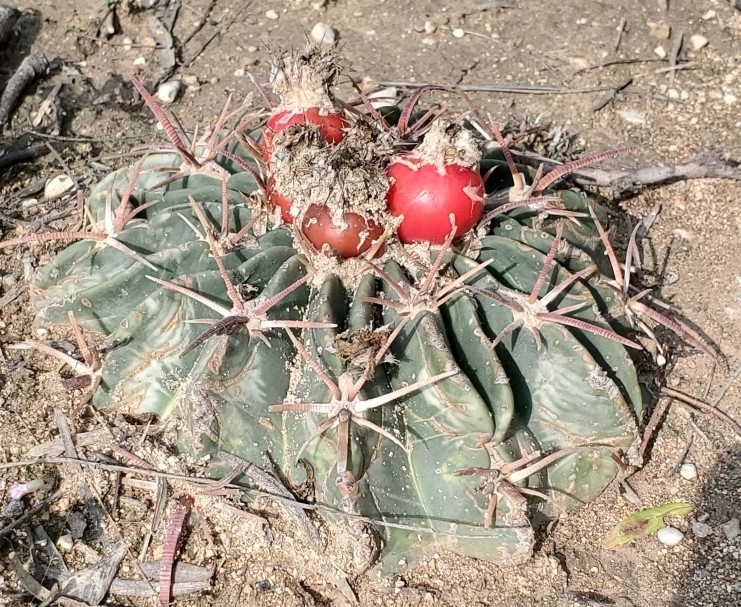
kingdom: Plantae
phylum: Tracheophyta
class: Magnoliopsida
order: Caryophyllales
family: Cactaceae
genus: Echinocactus
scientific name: Echinocactus texensis
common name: Devil's pincushion
